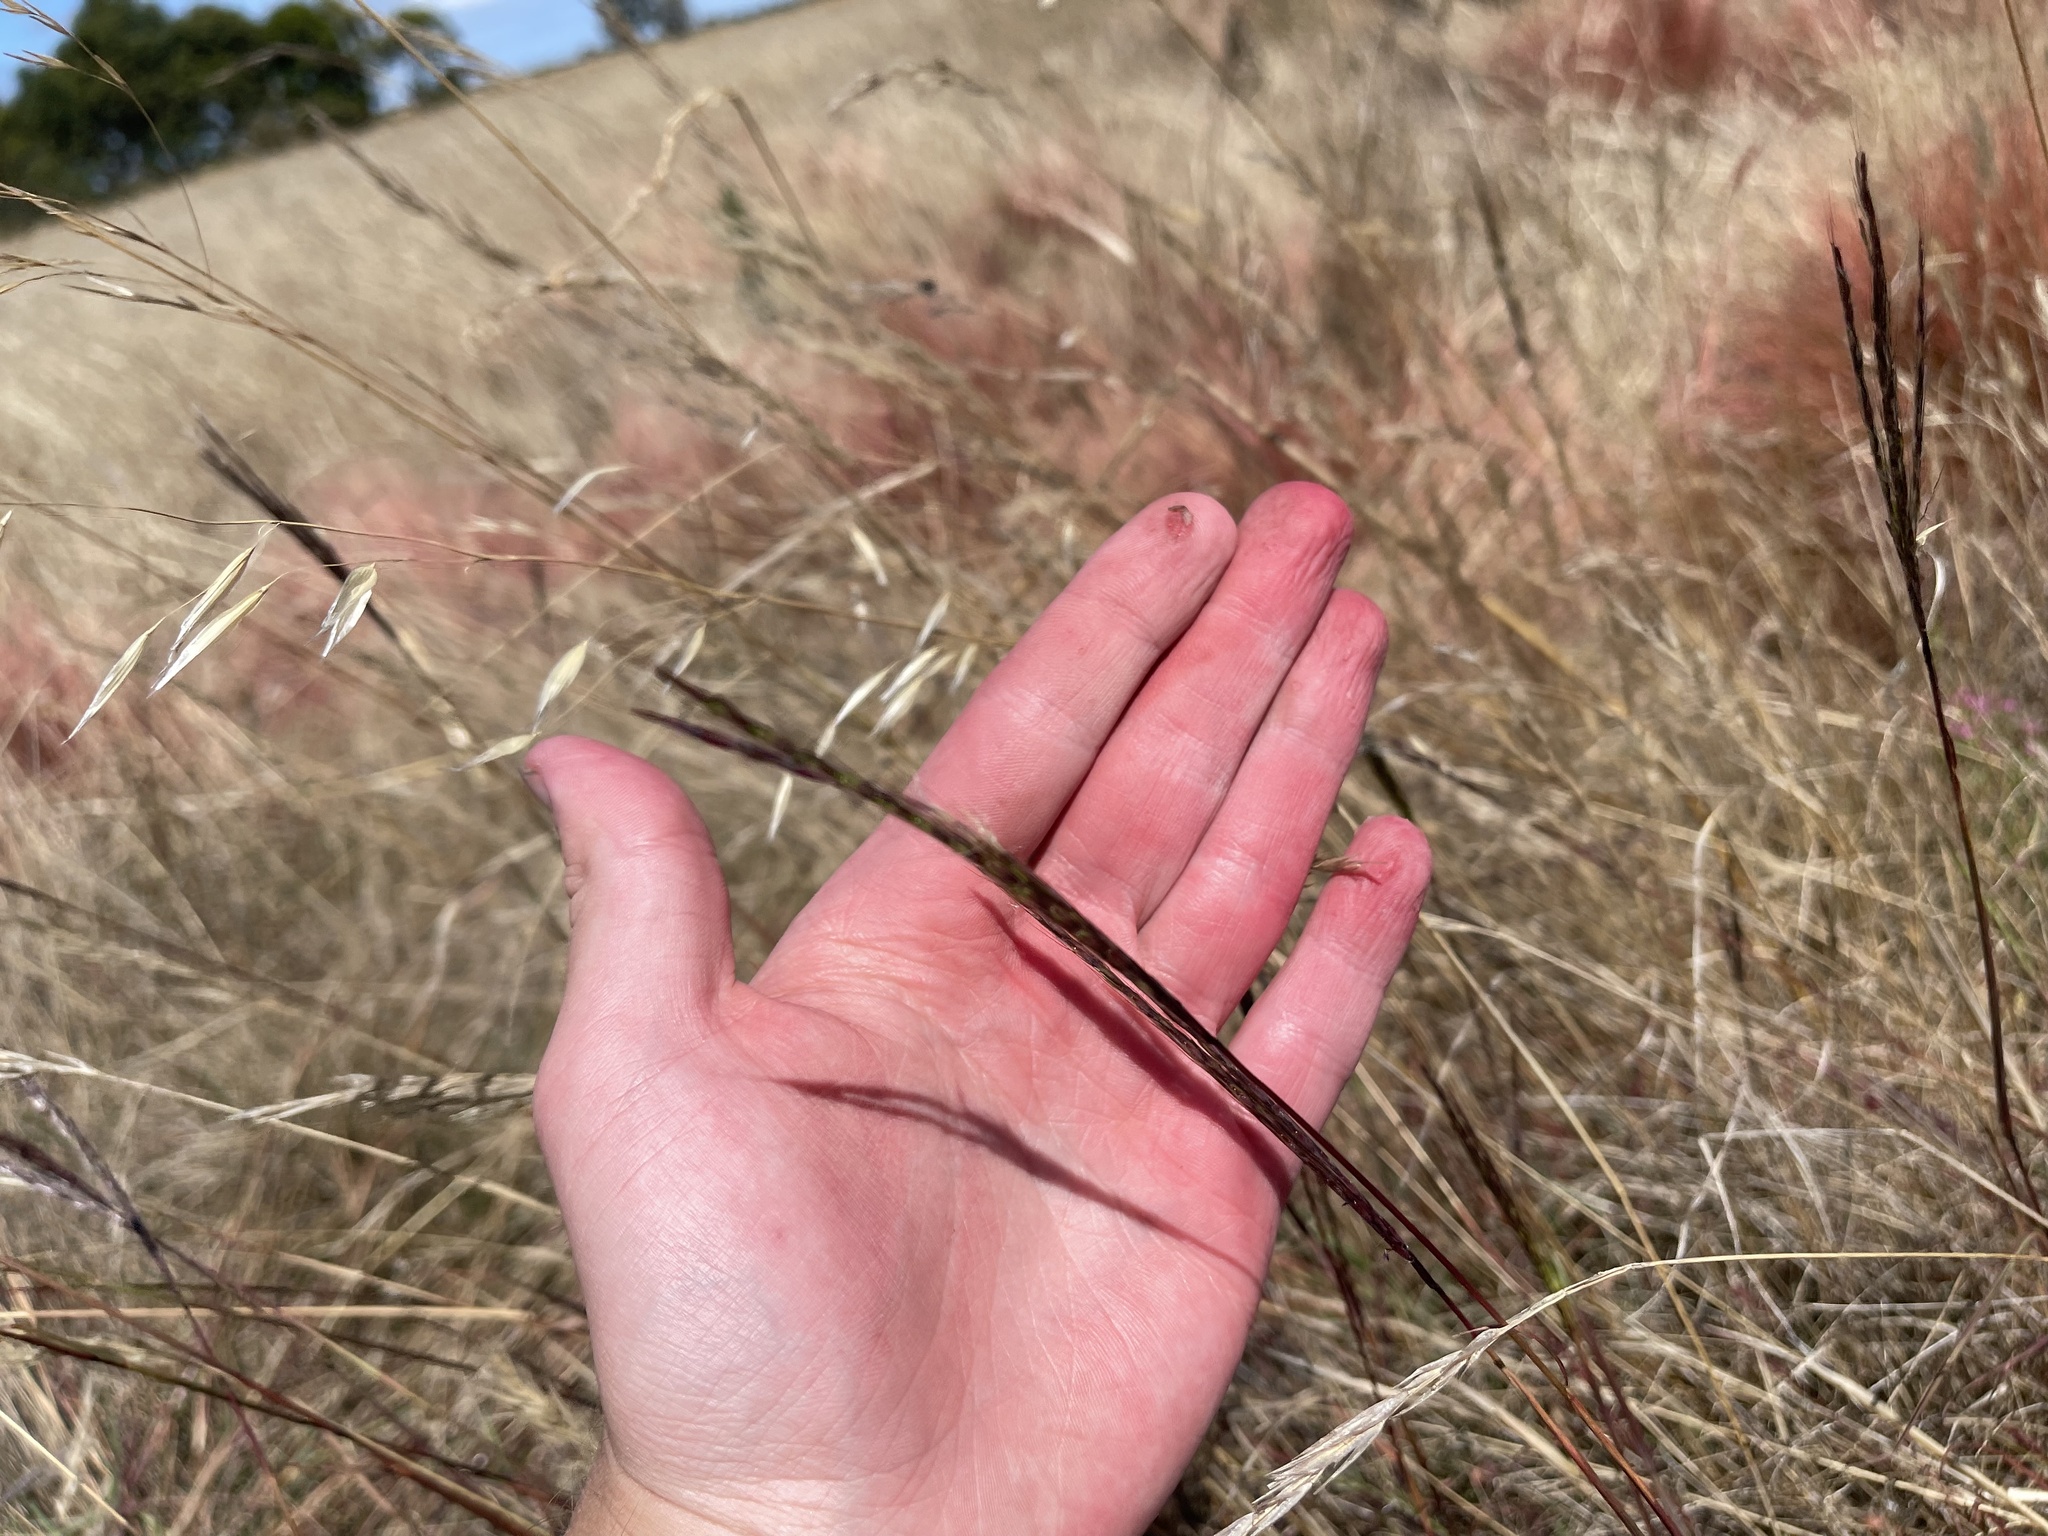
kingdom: Plantae
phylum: Tracheophyta
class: Liliopsida
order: Poales
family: Poaceae
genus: Bothriochloa
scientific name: Bothriochloa macra
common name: Pitted beard grass
